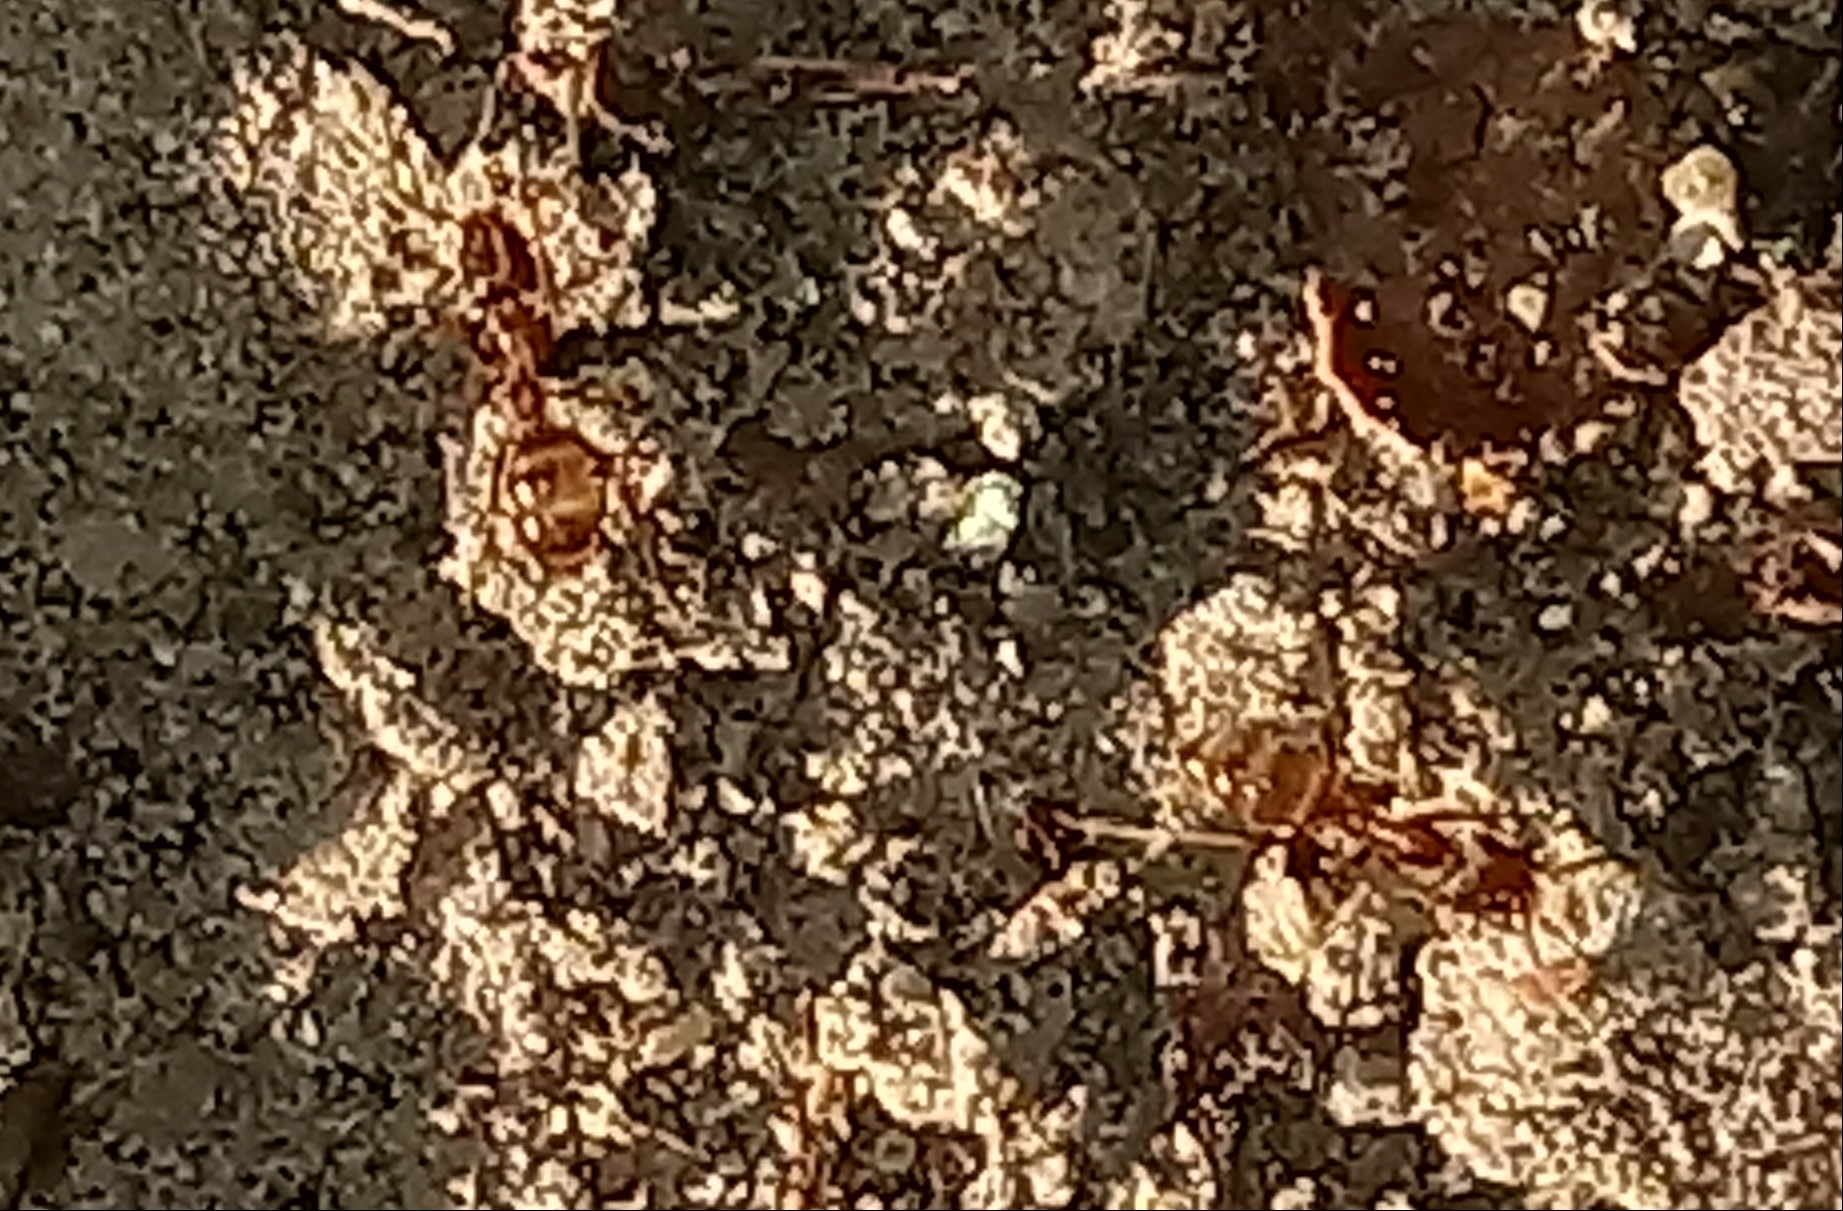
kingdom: Animalia
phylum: Arthropoda
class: Insecta
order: Hymenoptera
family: Formicidae
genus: Linepithema
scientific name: Linepithema humile
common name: Argentine ant
